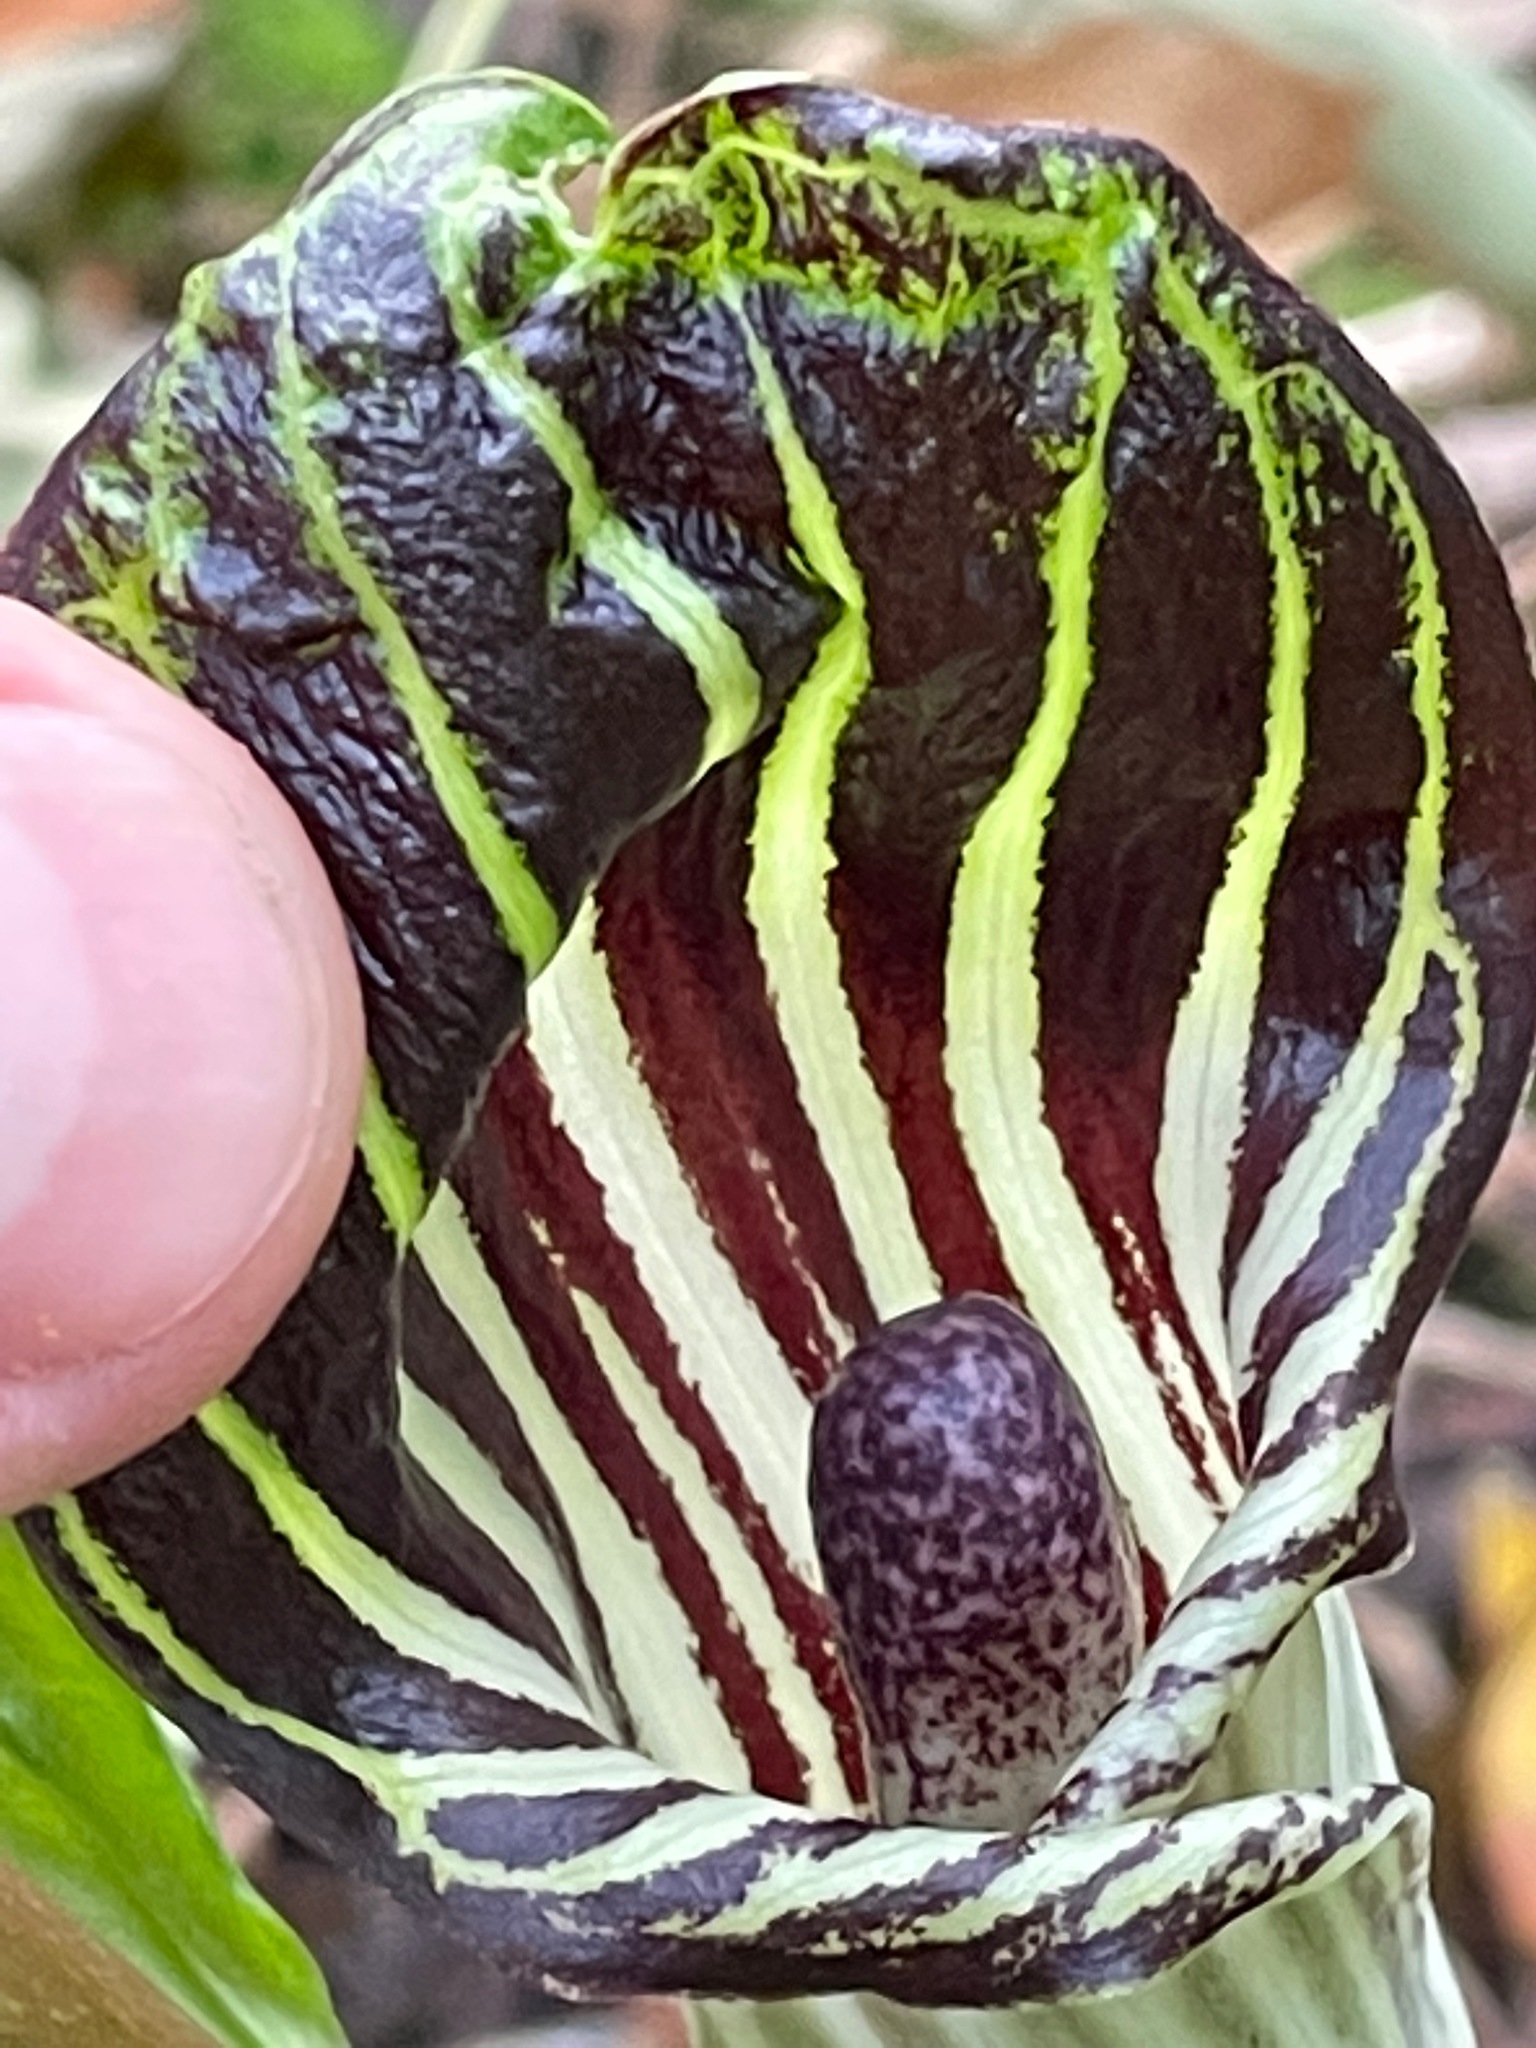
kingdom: Plantae
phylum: Tracheophyta
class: Liliopsida
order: Alismatales
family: Araceae
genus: Arisaema
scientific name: Arisaema triphyllum
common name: Jack-in-the-pulpit
